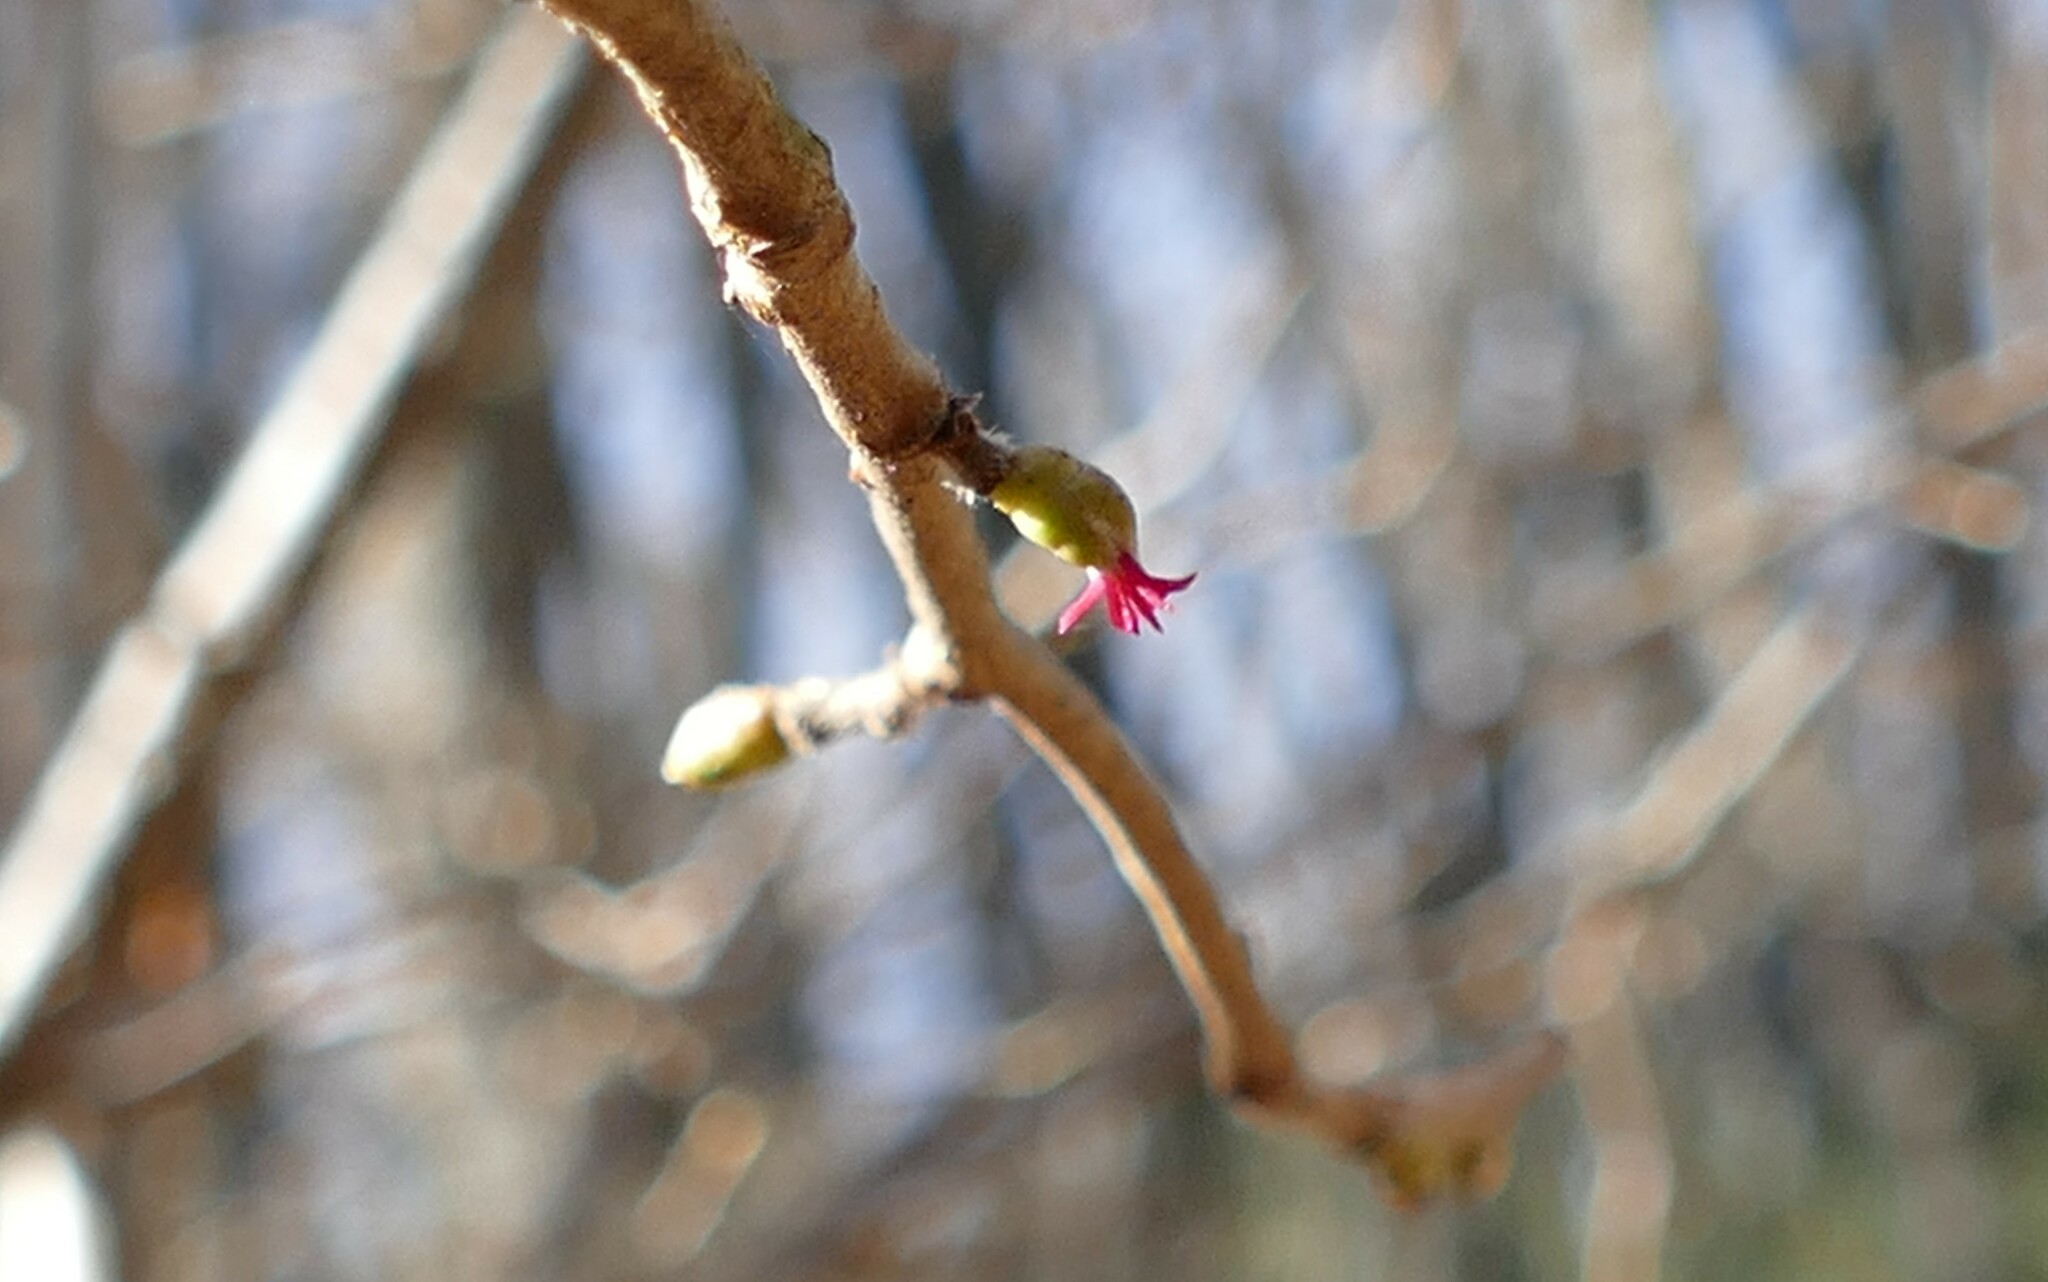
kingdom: Plantae
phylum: Tracheophyta
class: Magnoliopsida
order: Fagales
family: Betulaceae
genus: Corylus
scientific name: Corylus avellana
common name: European hazel
